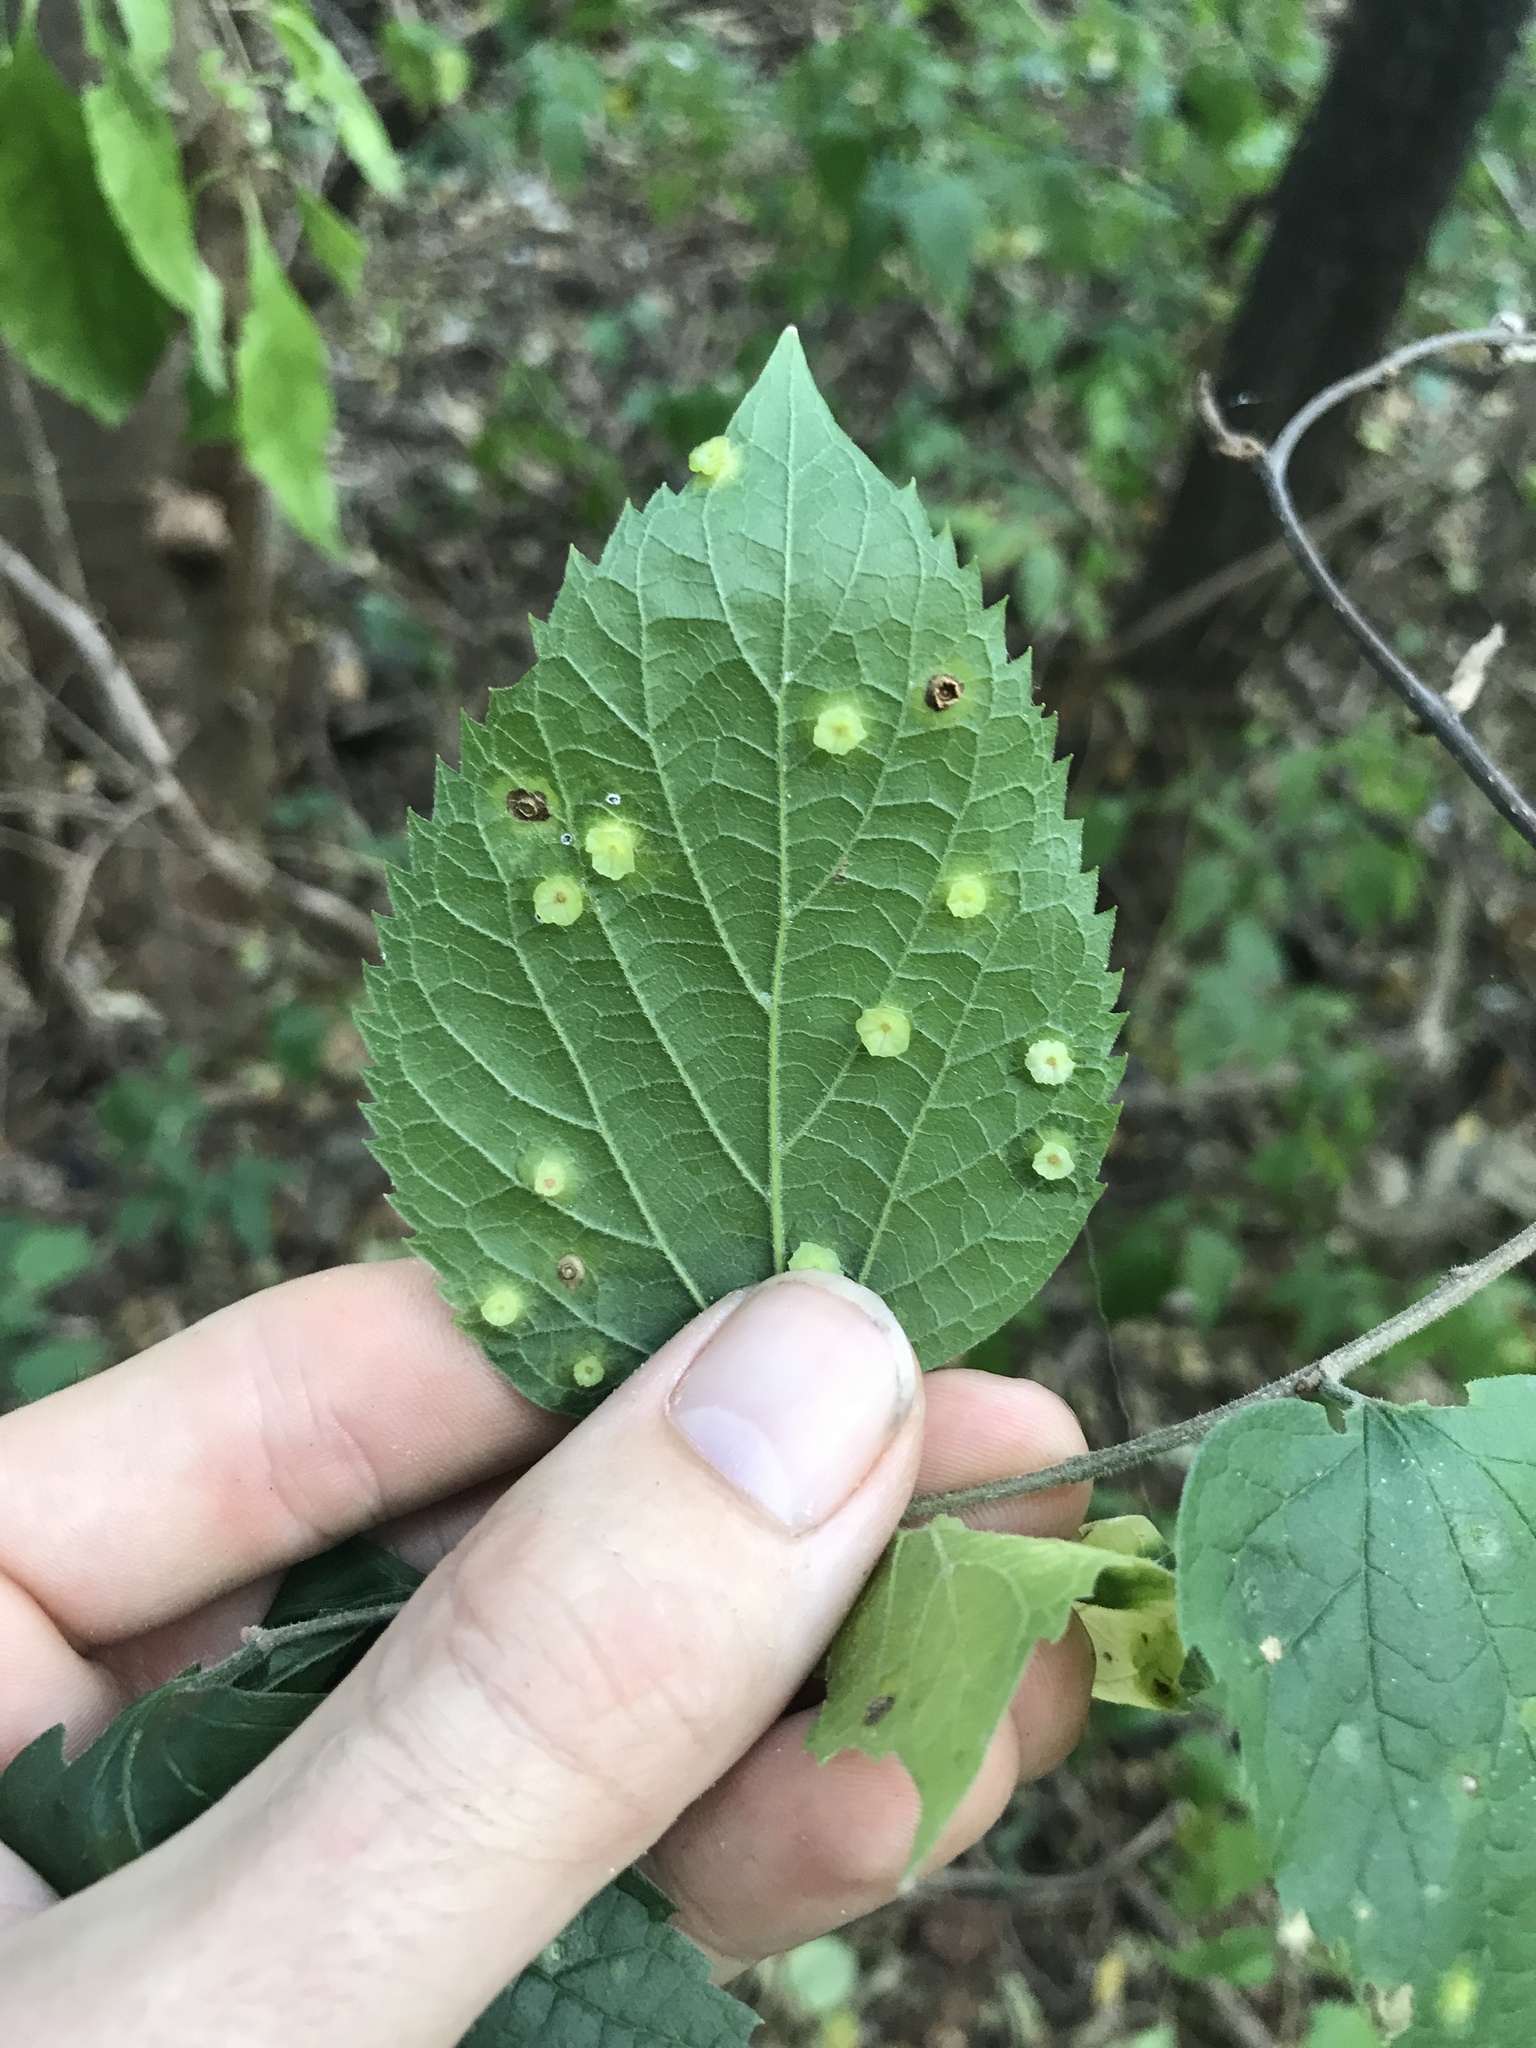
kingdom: Animalia
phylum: Arthropoda
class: Insecta
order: Hemiptera
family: Aphalaridae
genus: Pachypsylla
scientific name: Pachypsylla celtidisasterisca
